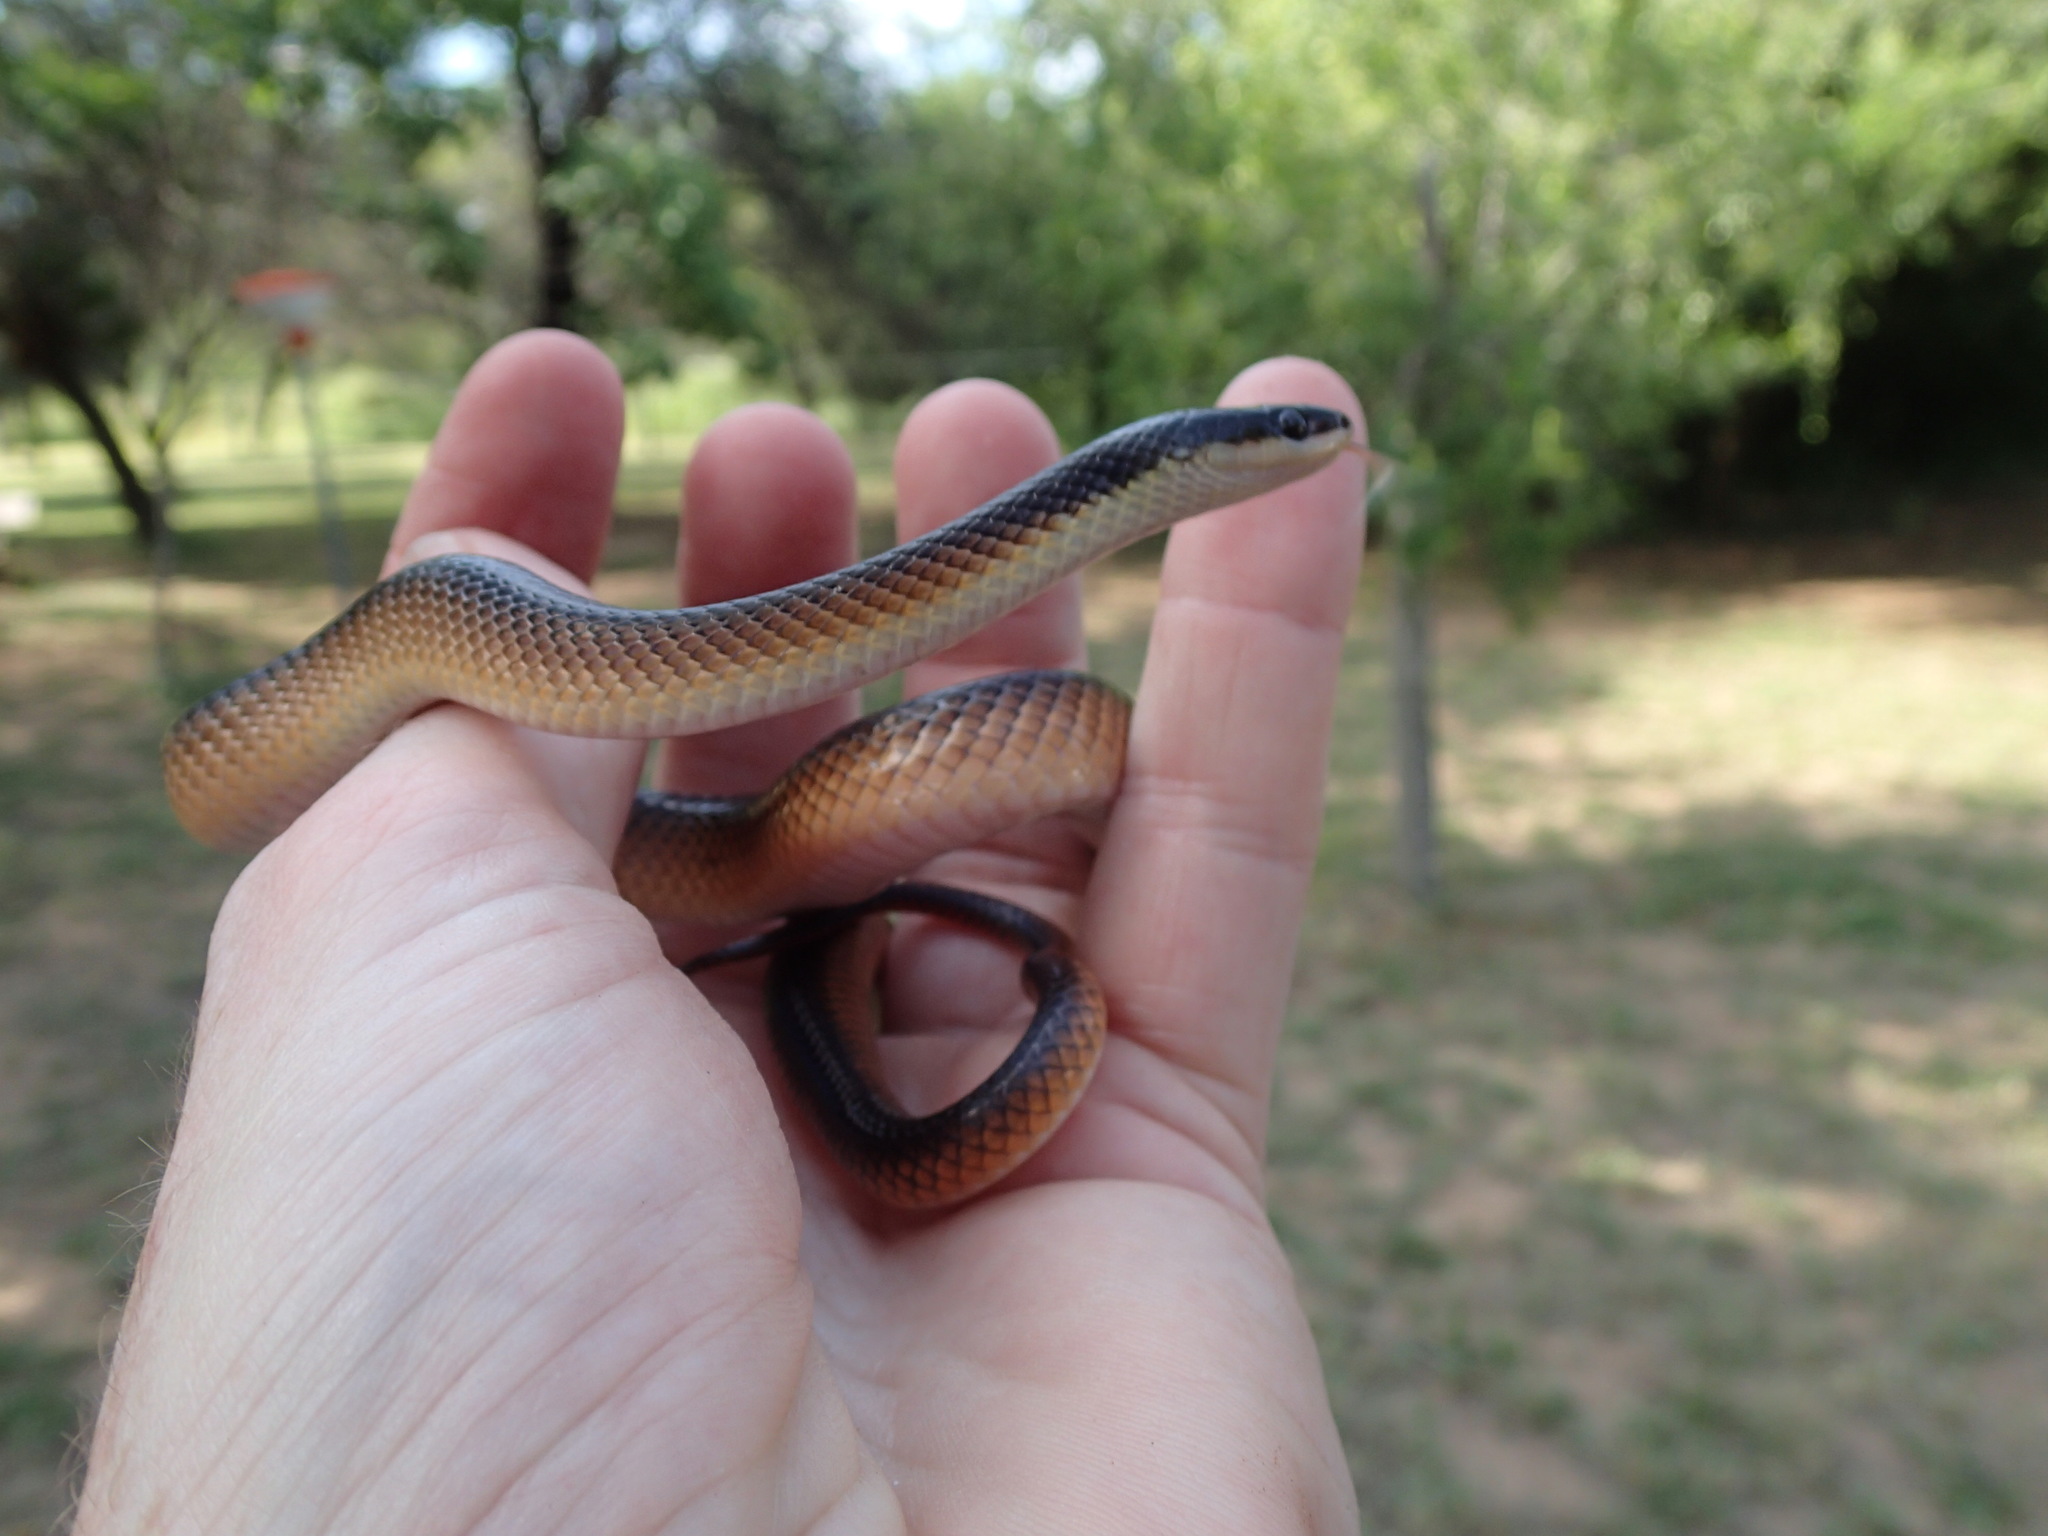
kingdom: Animalia
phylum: Chordata
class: Squamata
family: Colubridae
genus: Mussurana
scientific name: Mussurana bicolor
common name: Two-colored mussurana
